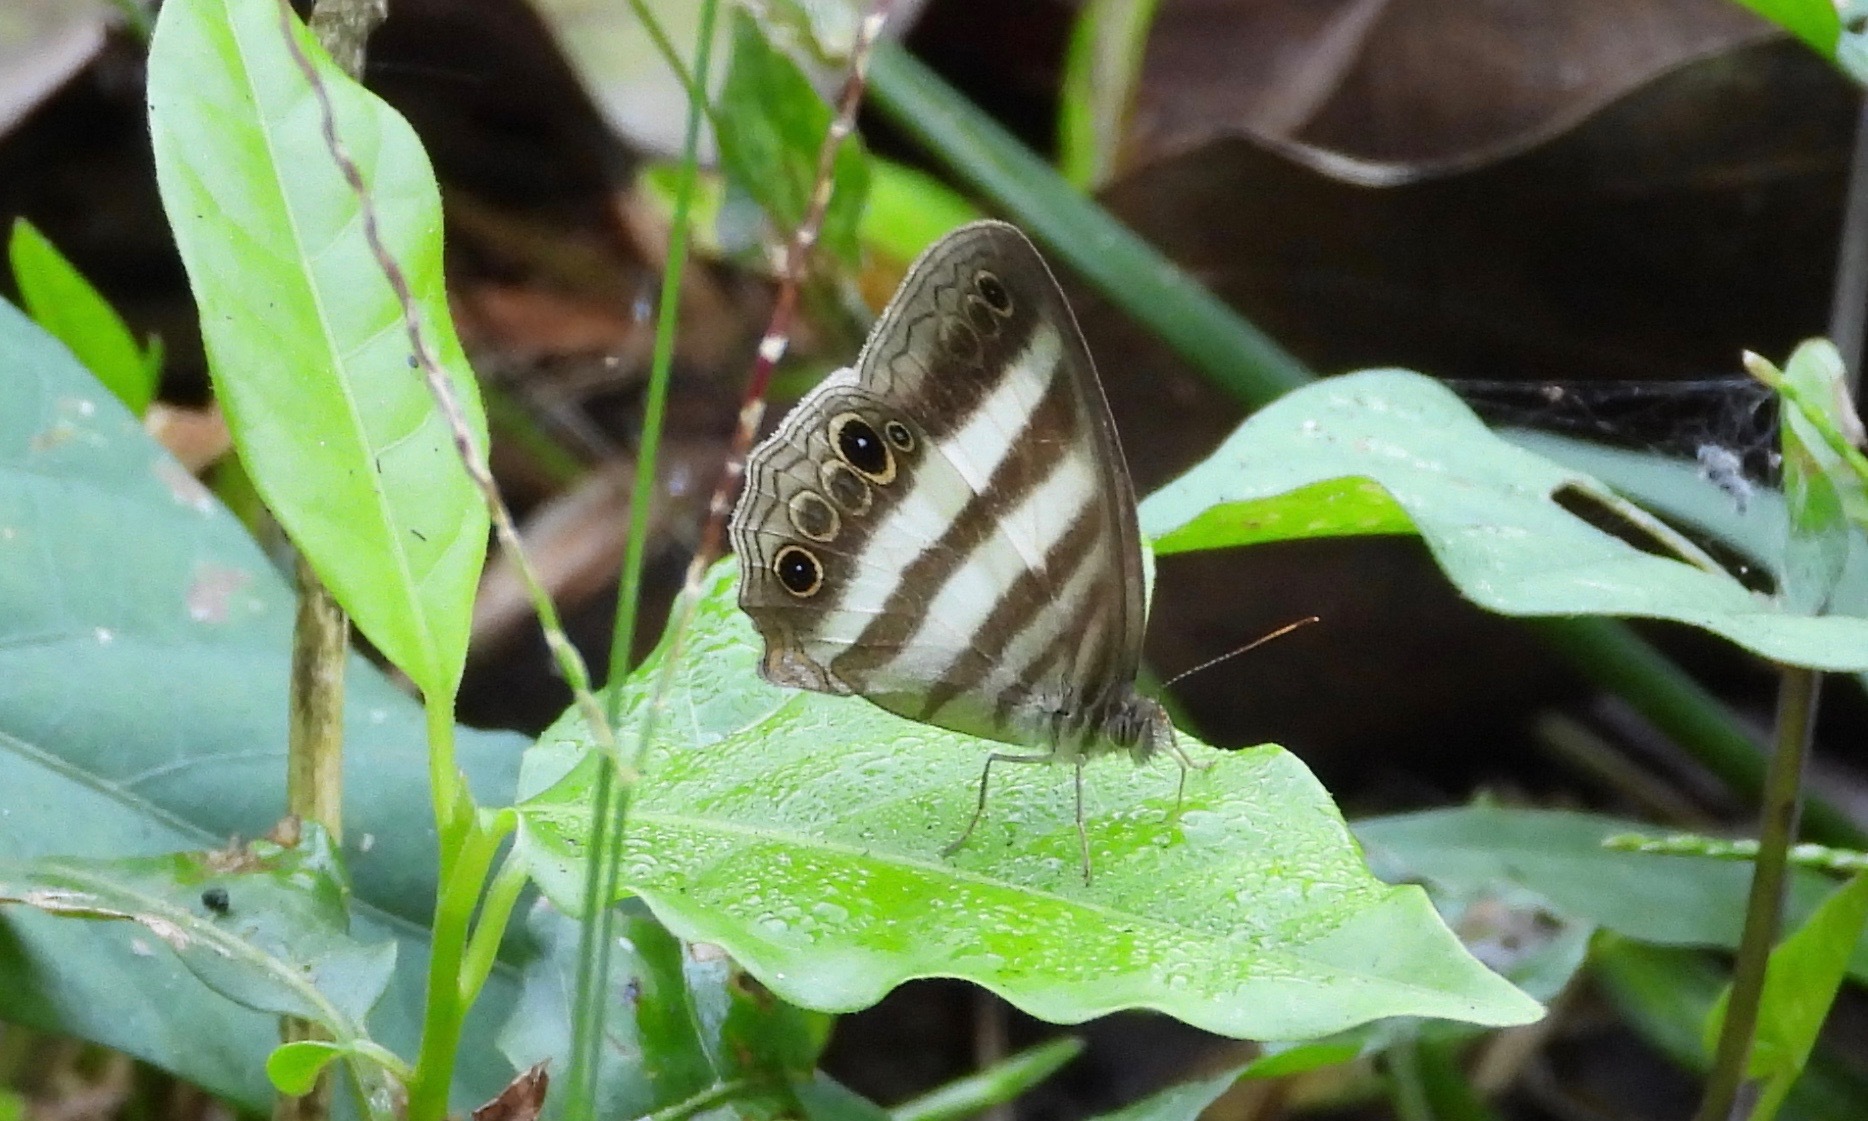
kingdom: Animalia
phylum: Arthropoda
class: Insecta
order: Lepidoptera
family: Nymphalidae
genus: Pareuptychia
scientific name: Pareuptychia hesione
